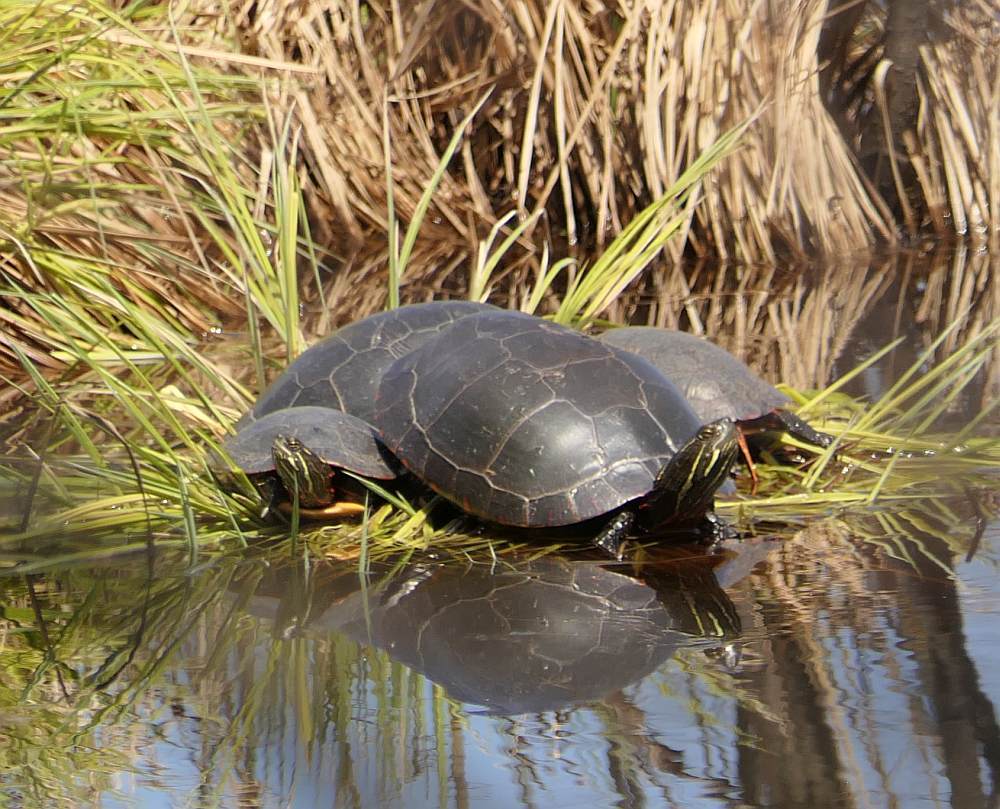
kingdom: Animalia
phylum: Chordata
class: Testudines
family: Emydidae
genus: Chrysemys
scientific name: Chrysemys picta
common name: Painted turtle
